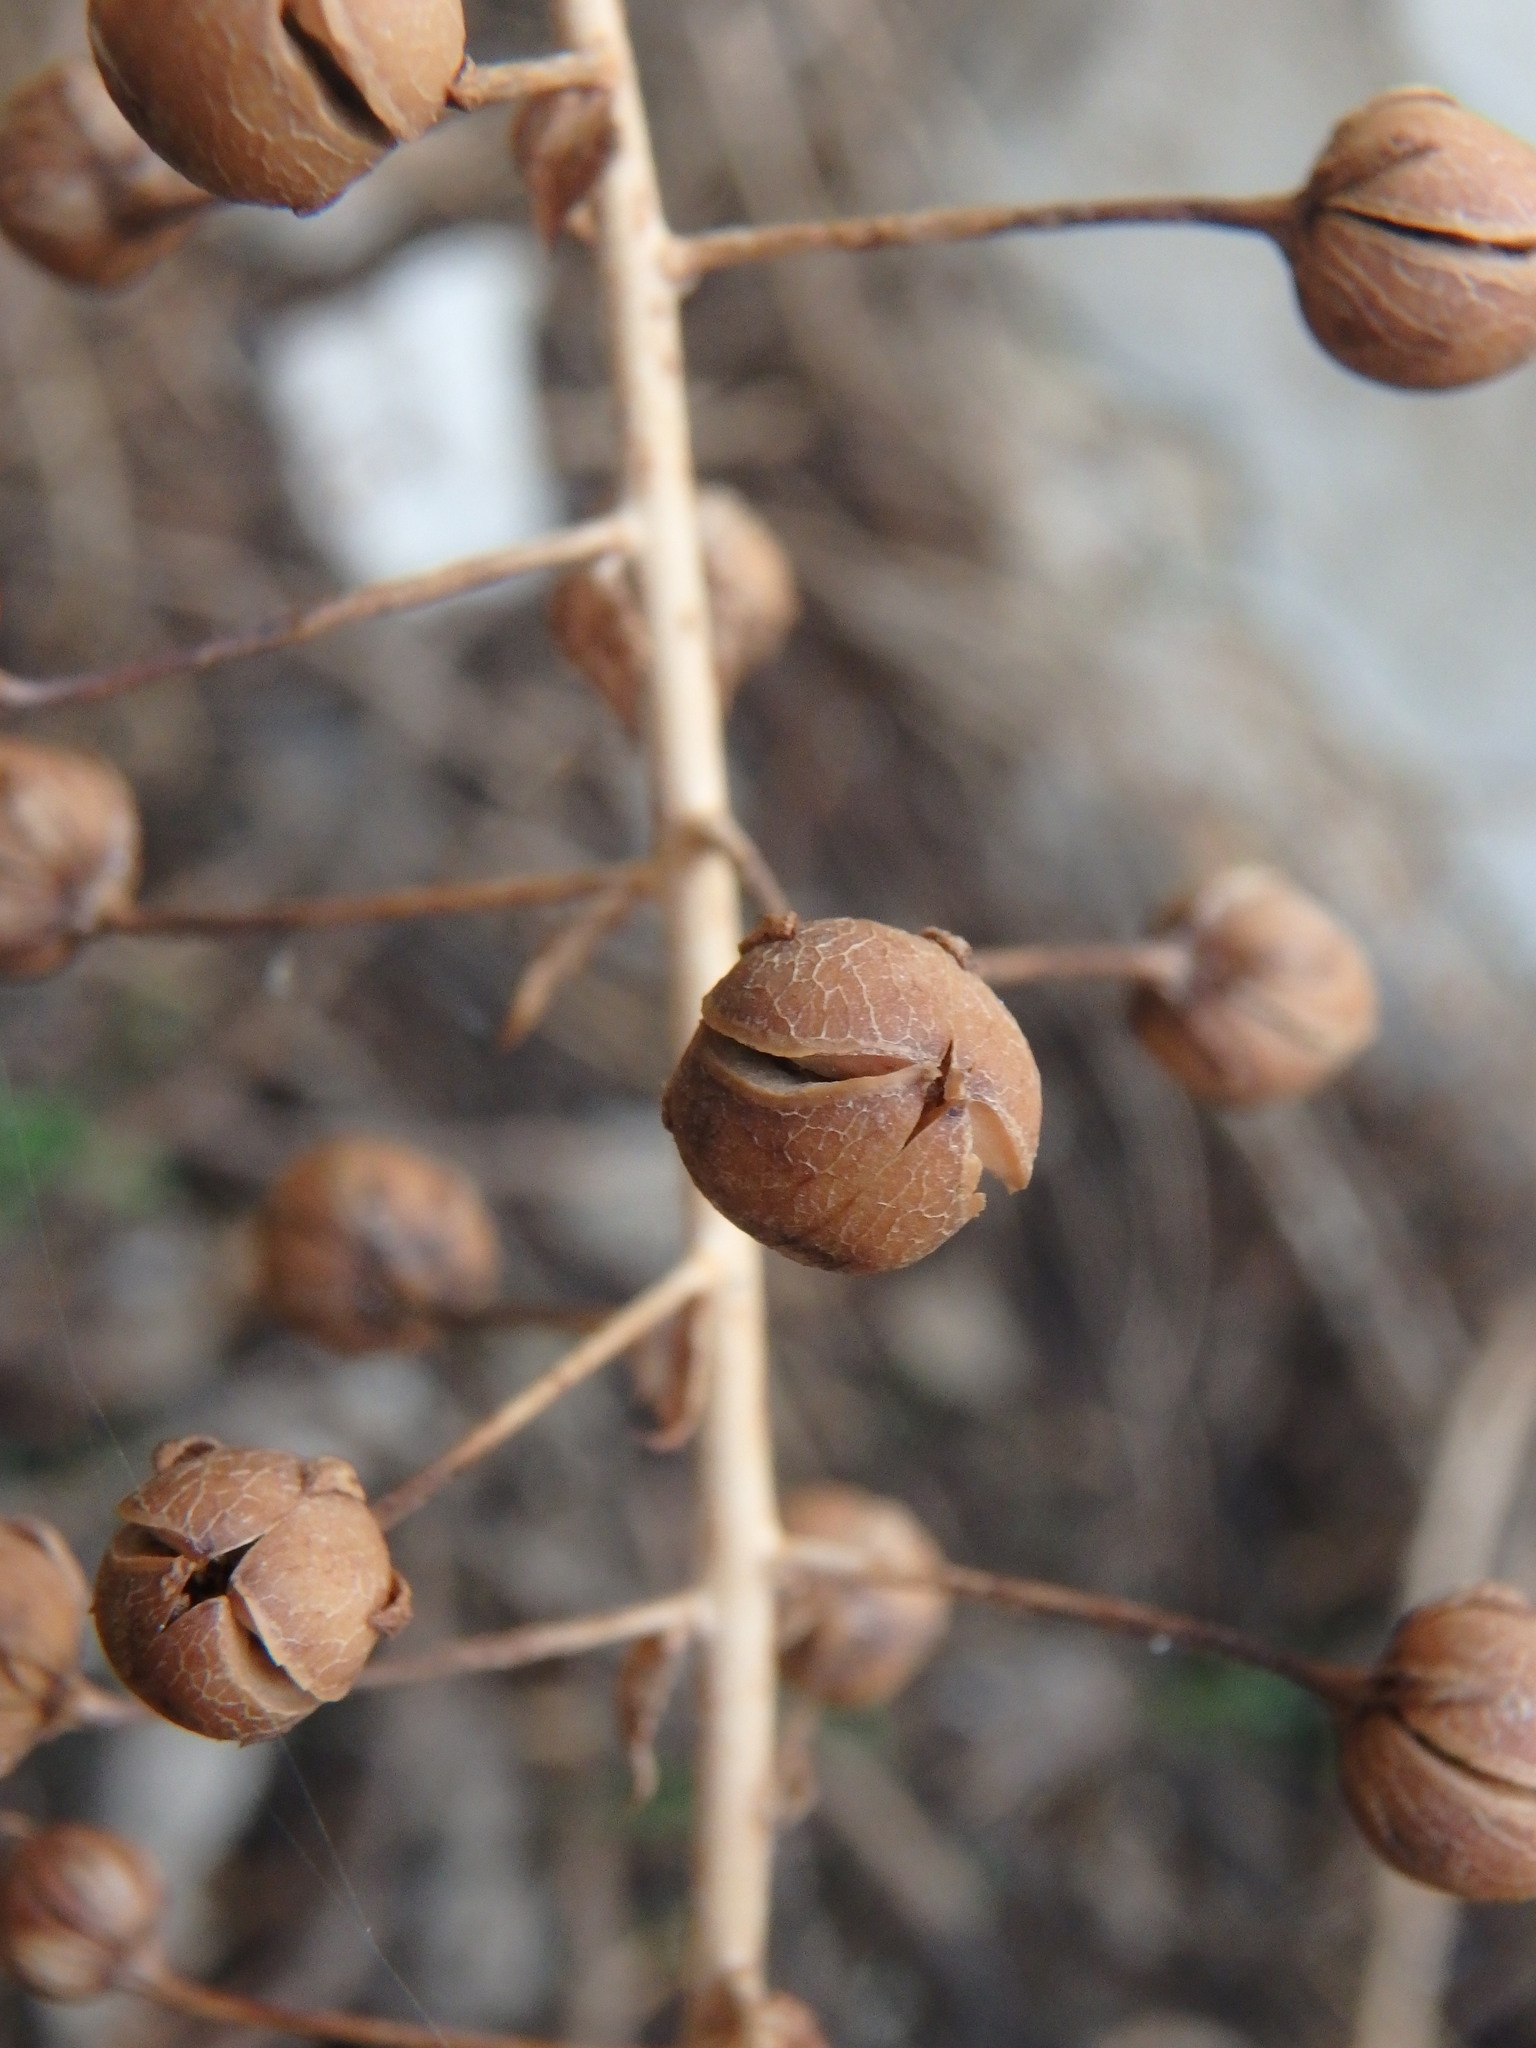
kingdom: Plantae
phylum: Tracheophyta
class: Magnoliopsida
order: Lamiales
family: Scrophulariaceae
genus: Verbascum
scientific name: Verbascum levanticum
